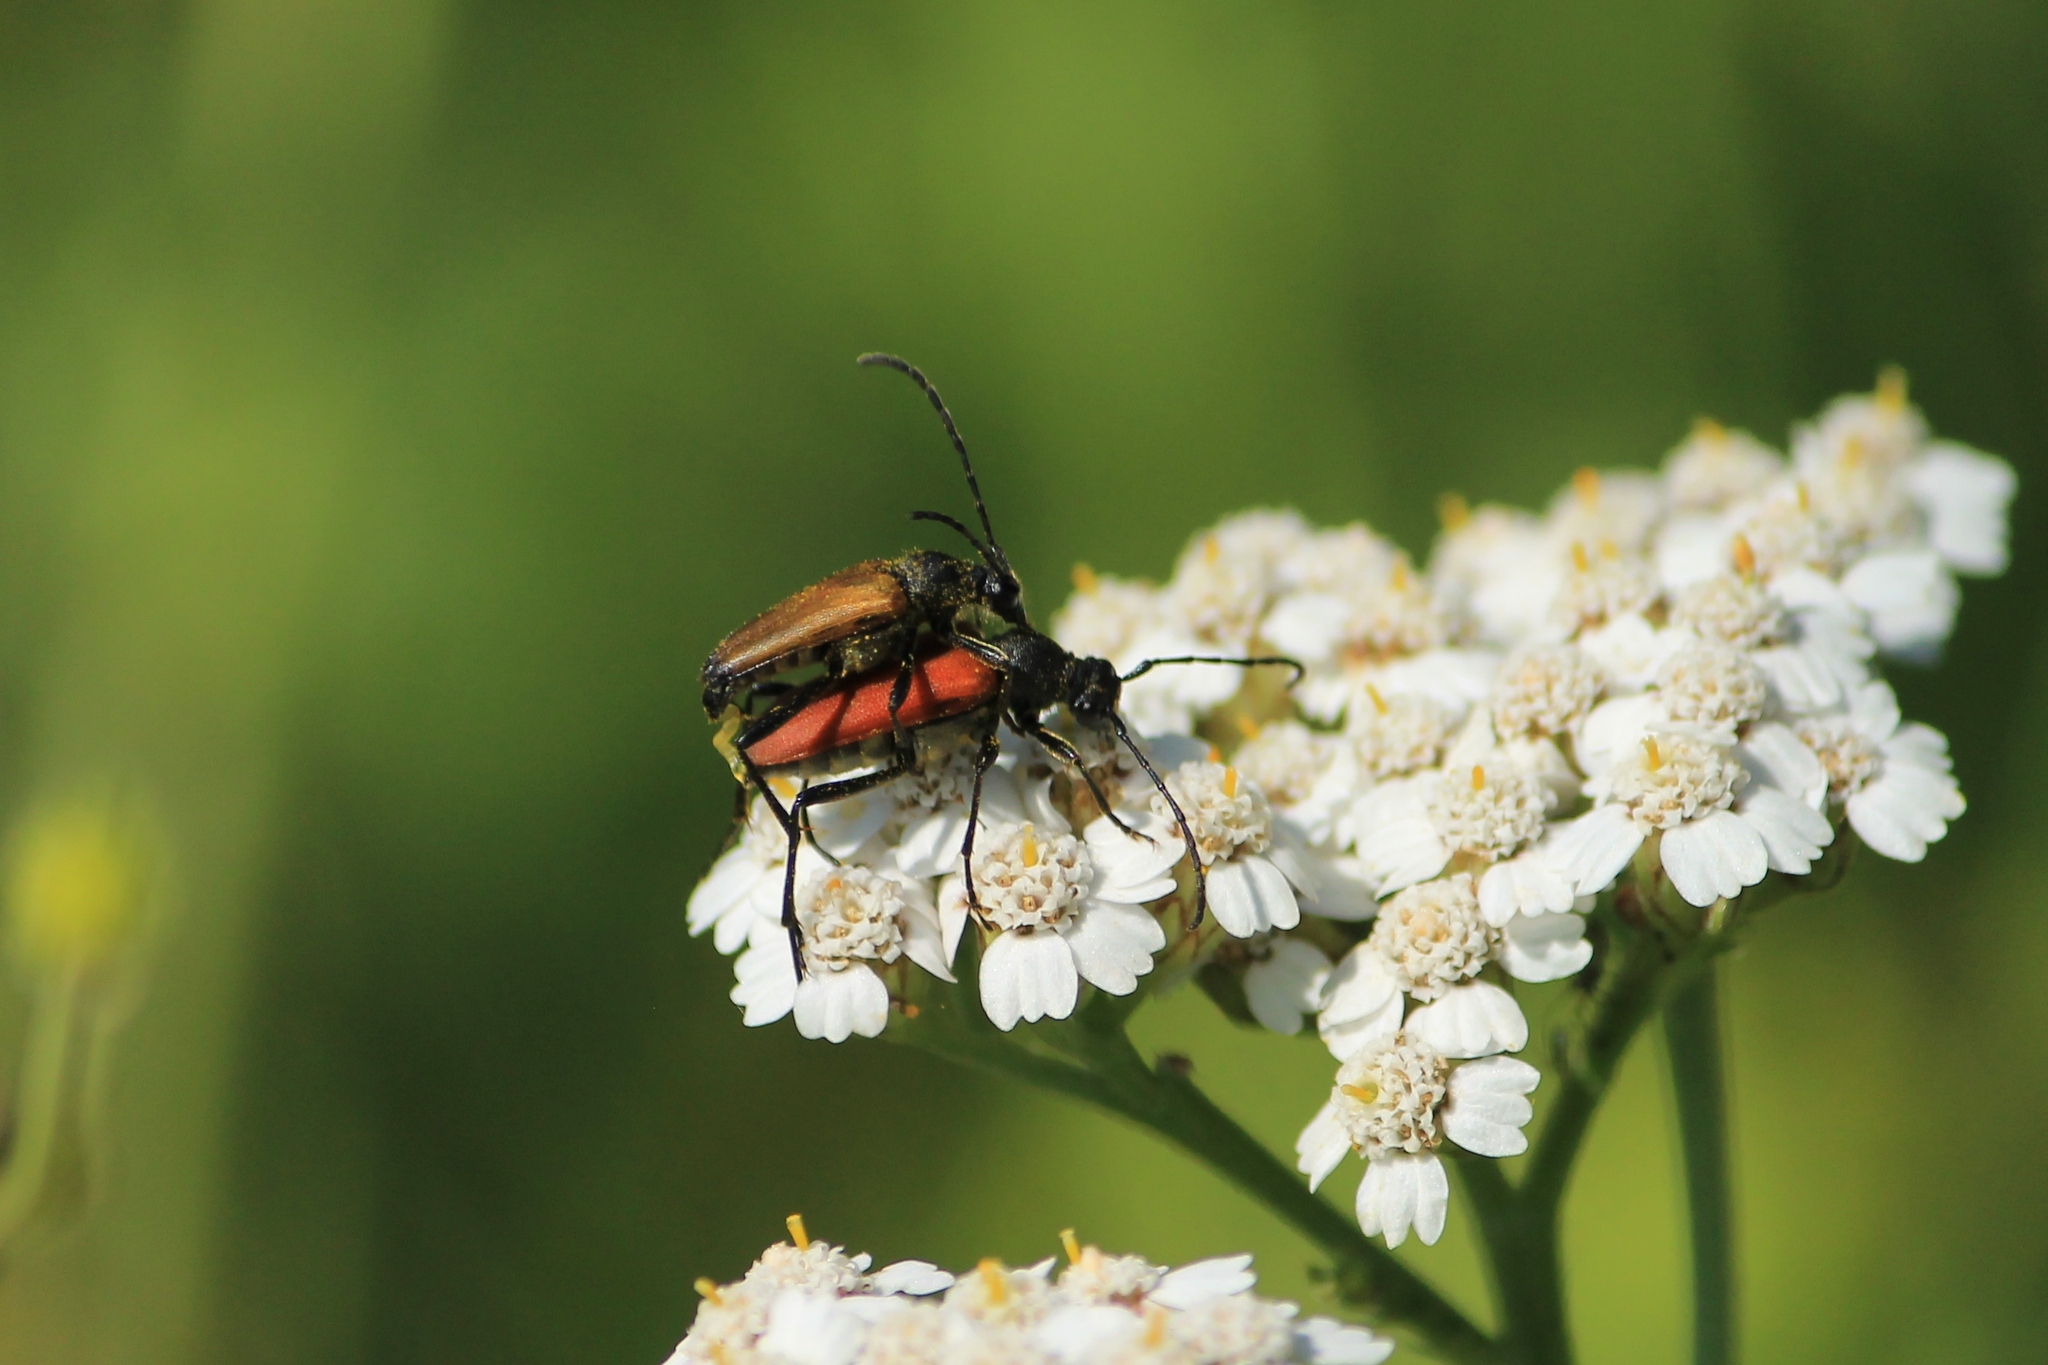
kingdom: Animalia
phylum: Arthropoda
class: Insecta
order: Coleoptera
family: Cerambycidae
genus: Anastrangalia
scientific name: Anastrangalia sanguinolenta
